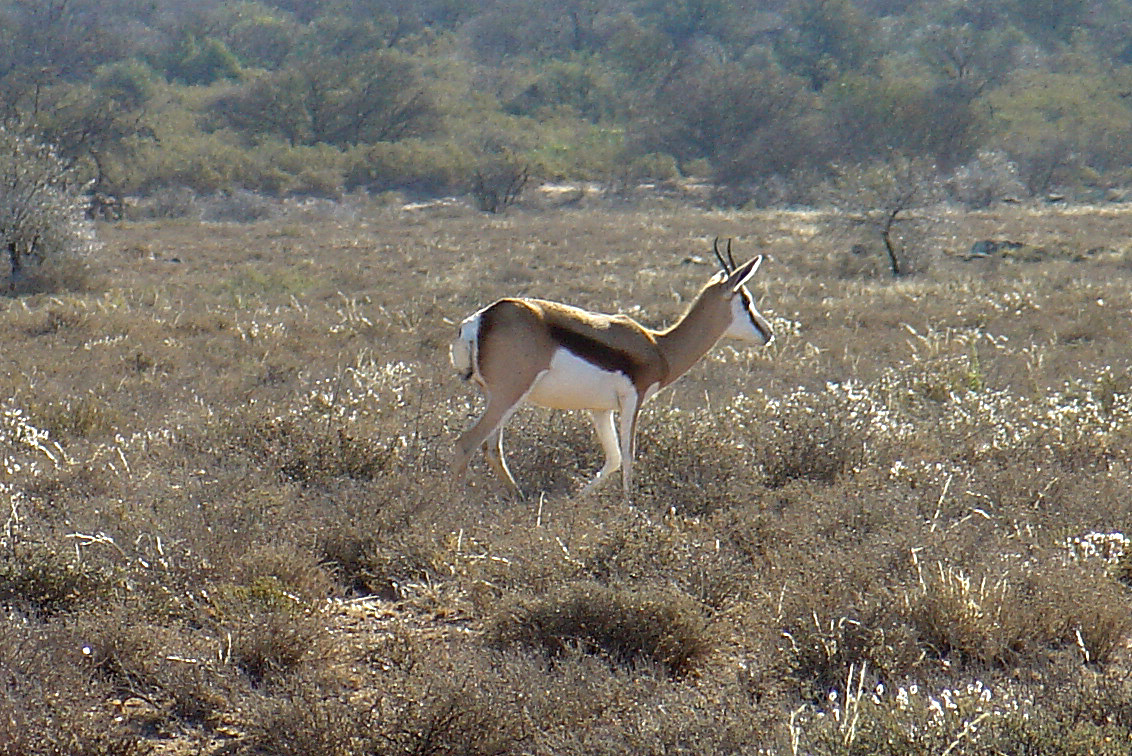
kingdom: Animalia
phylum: Chordata
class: Mammalia
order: Artiodactyla
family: Bovidae
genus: Antidorcas
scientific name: Antidorcas marsupialis
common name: Springbok
